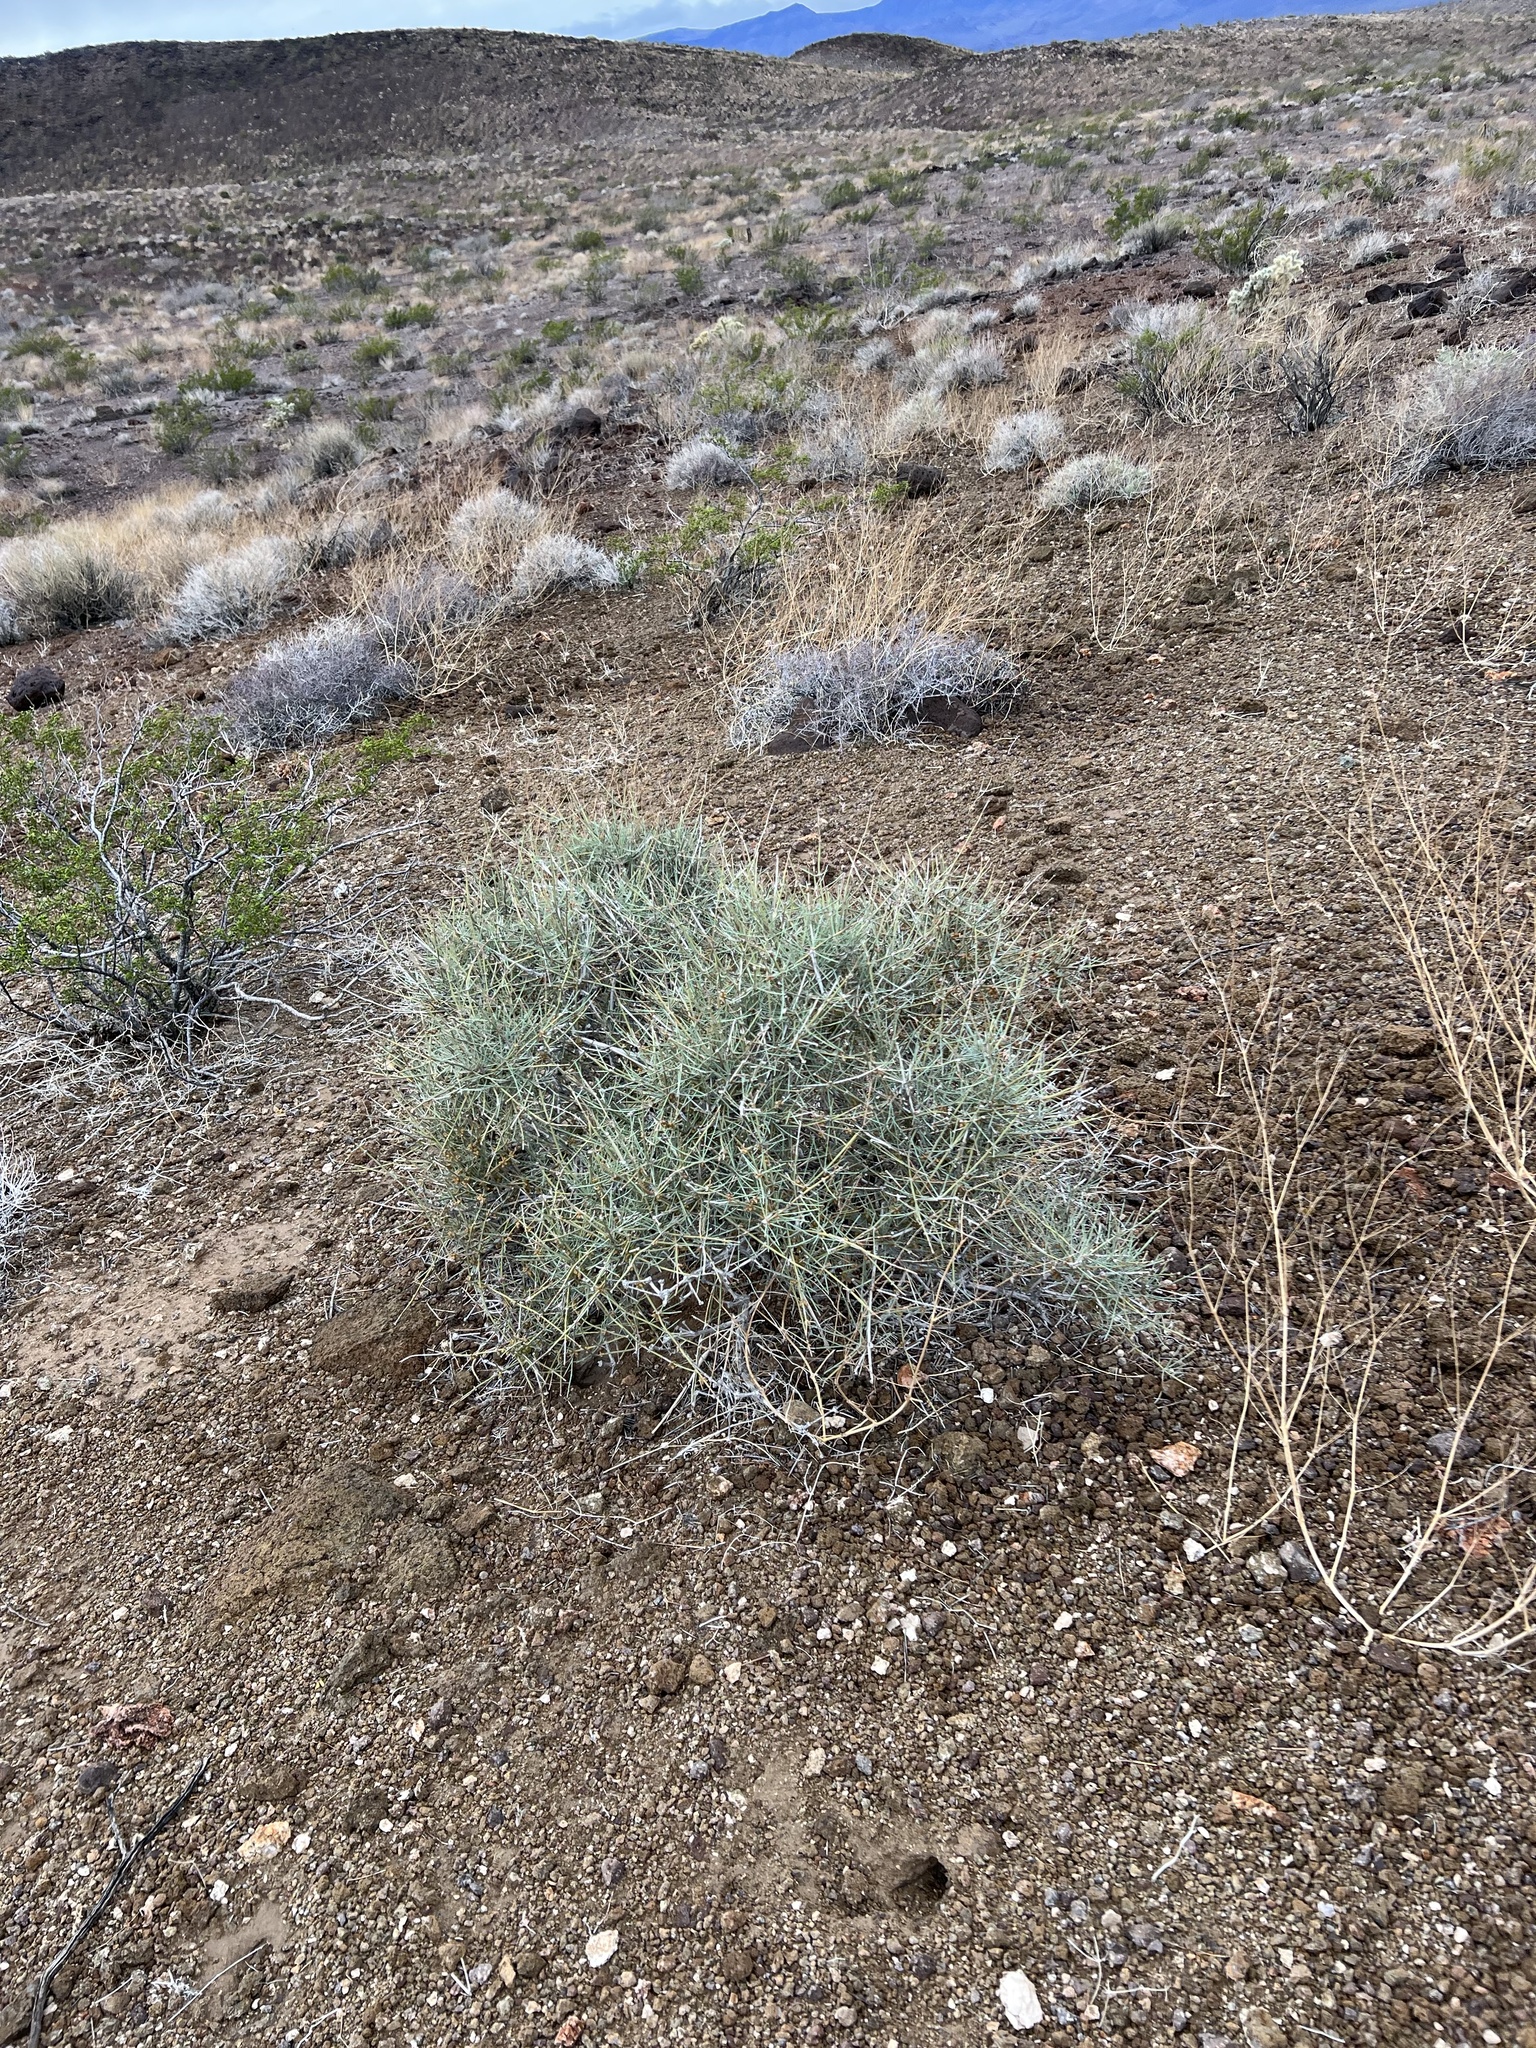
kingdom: Plantae
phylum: Tracheophyta
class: Gnetopsida
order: Ephedrales
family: Ephedraceae
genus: Ephedra
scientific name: Ephedra nevadensis
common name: Gray ephedra
